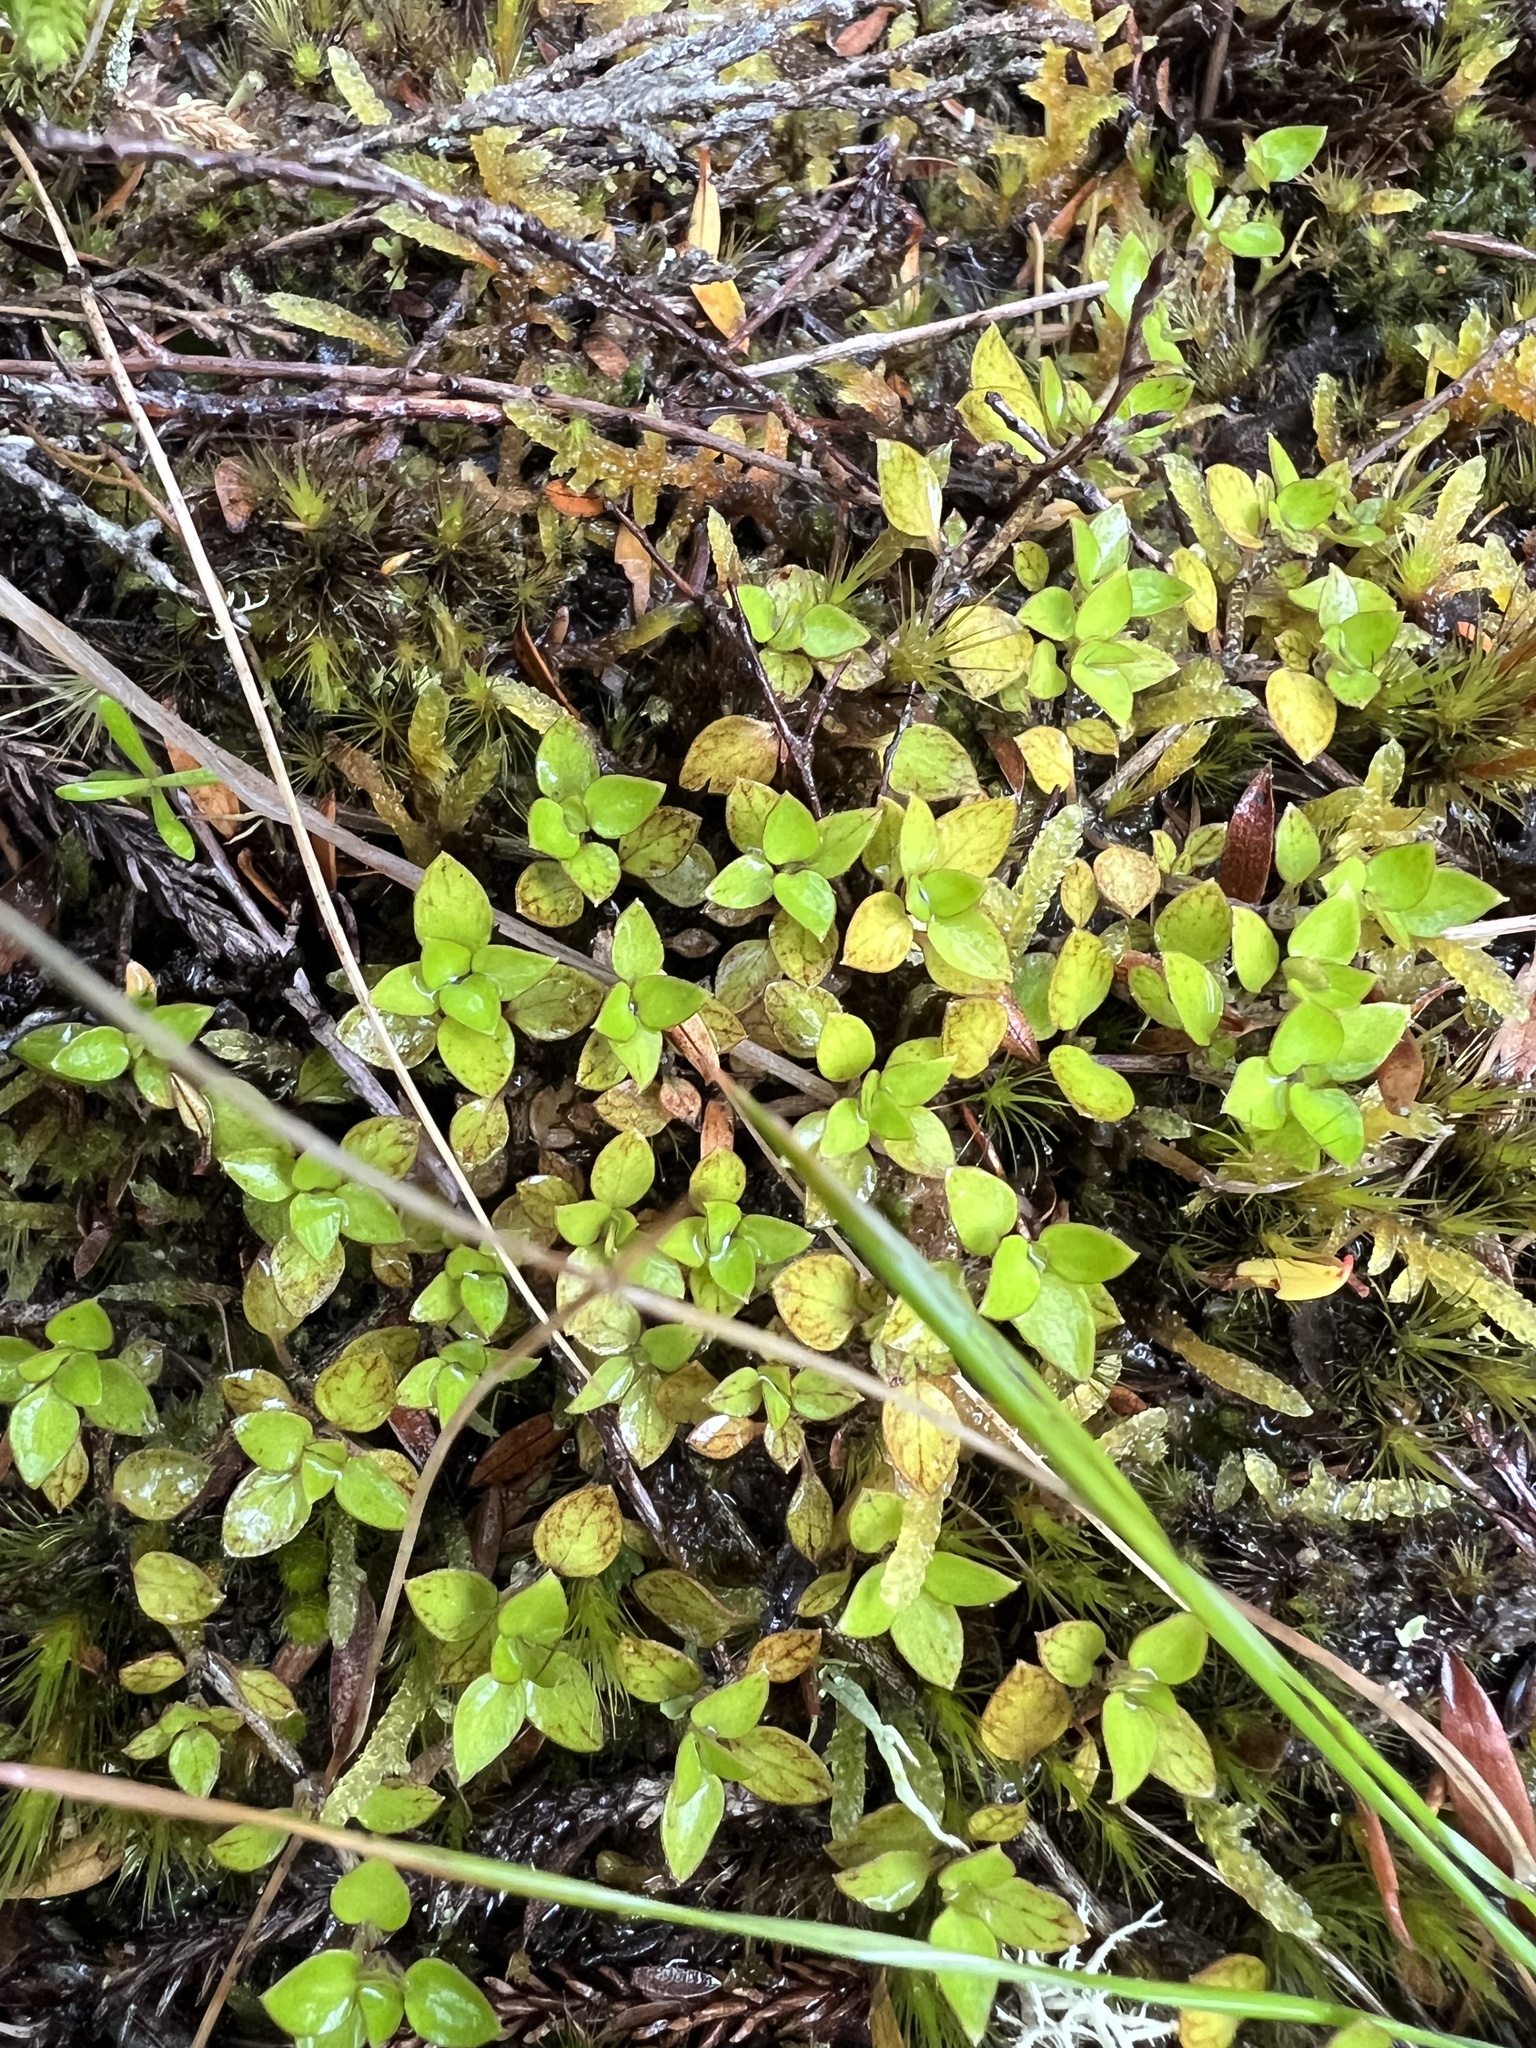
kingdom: Plantae
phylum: Tracheophyta
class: Magnoliopsida
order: Gentianales
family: Rubiaceae
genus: Nertera
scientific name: Nertera granadensis
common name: Beadplant
